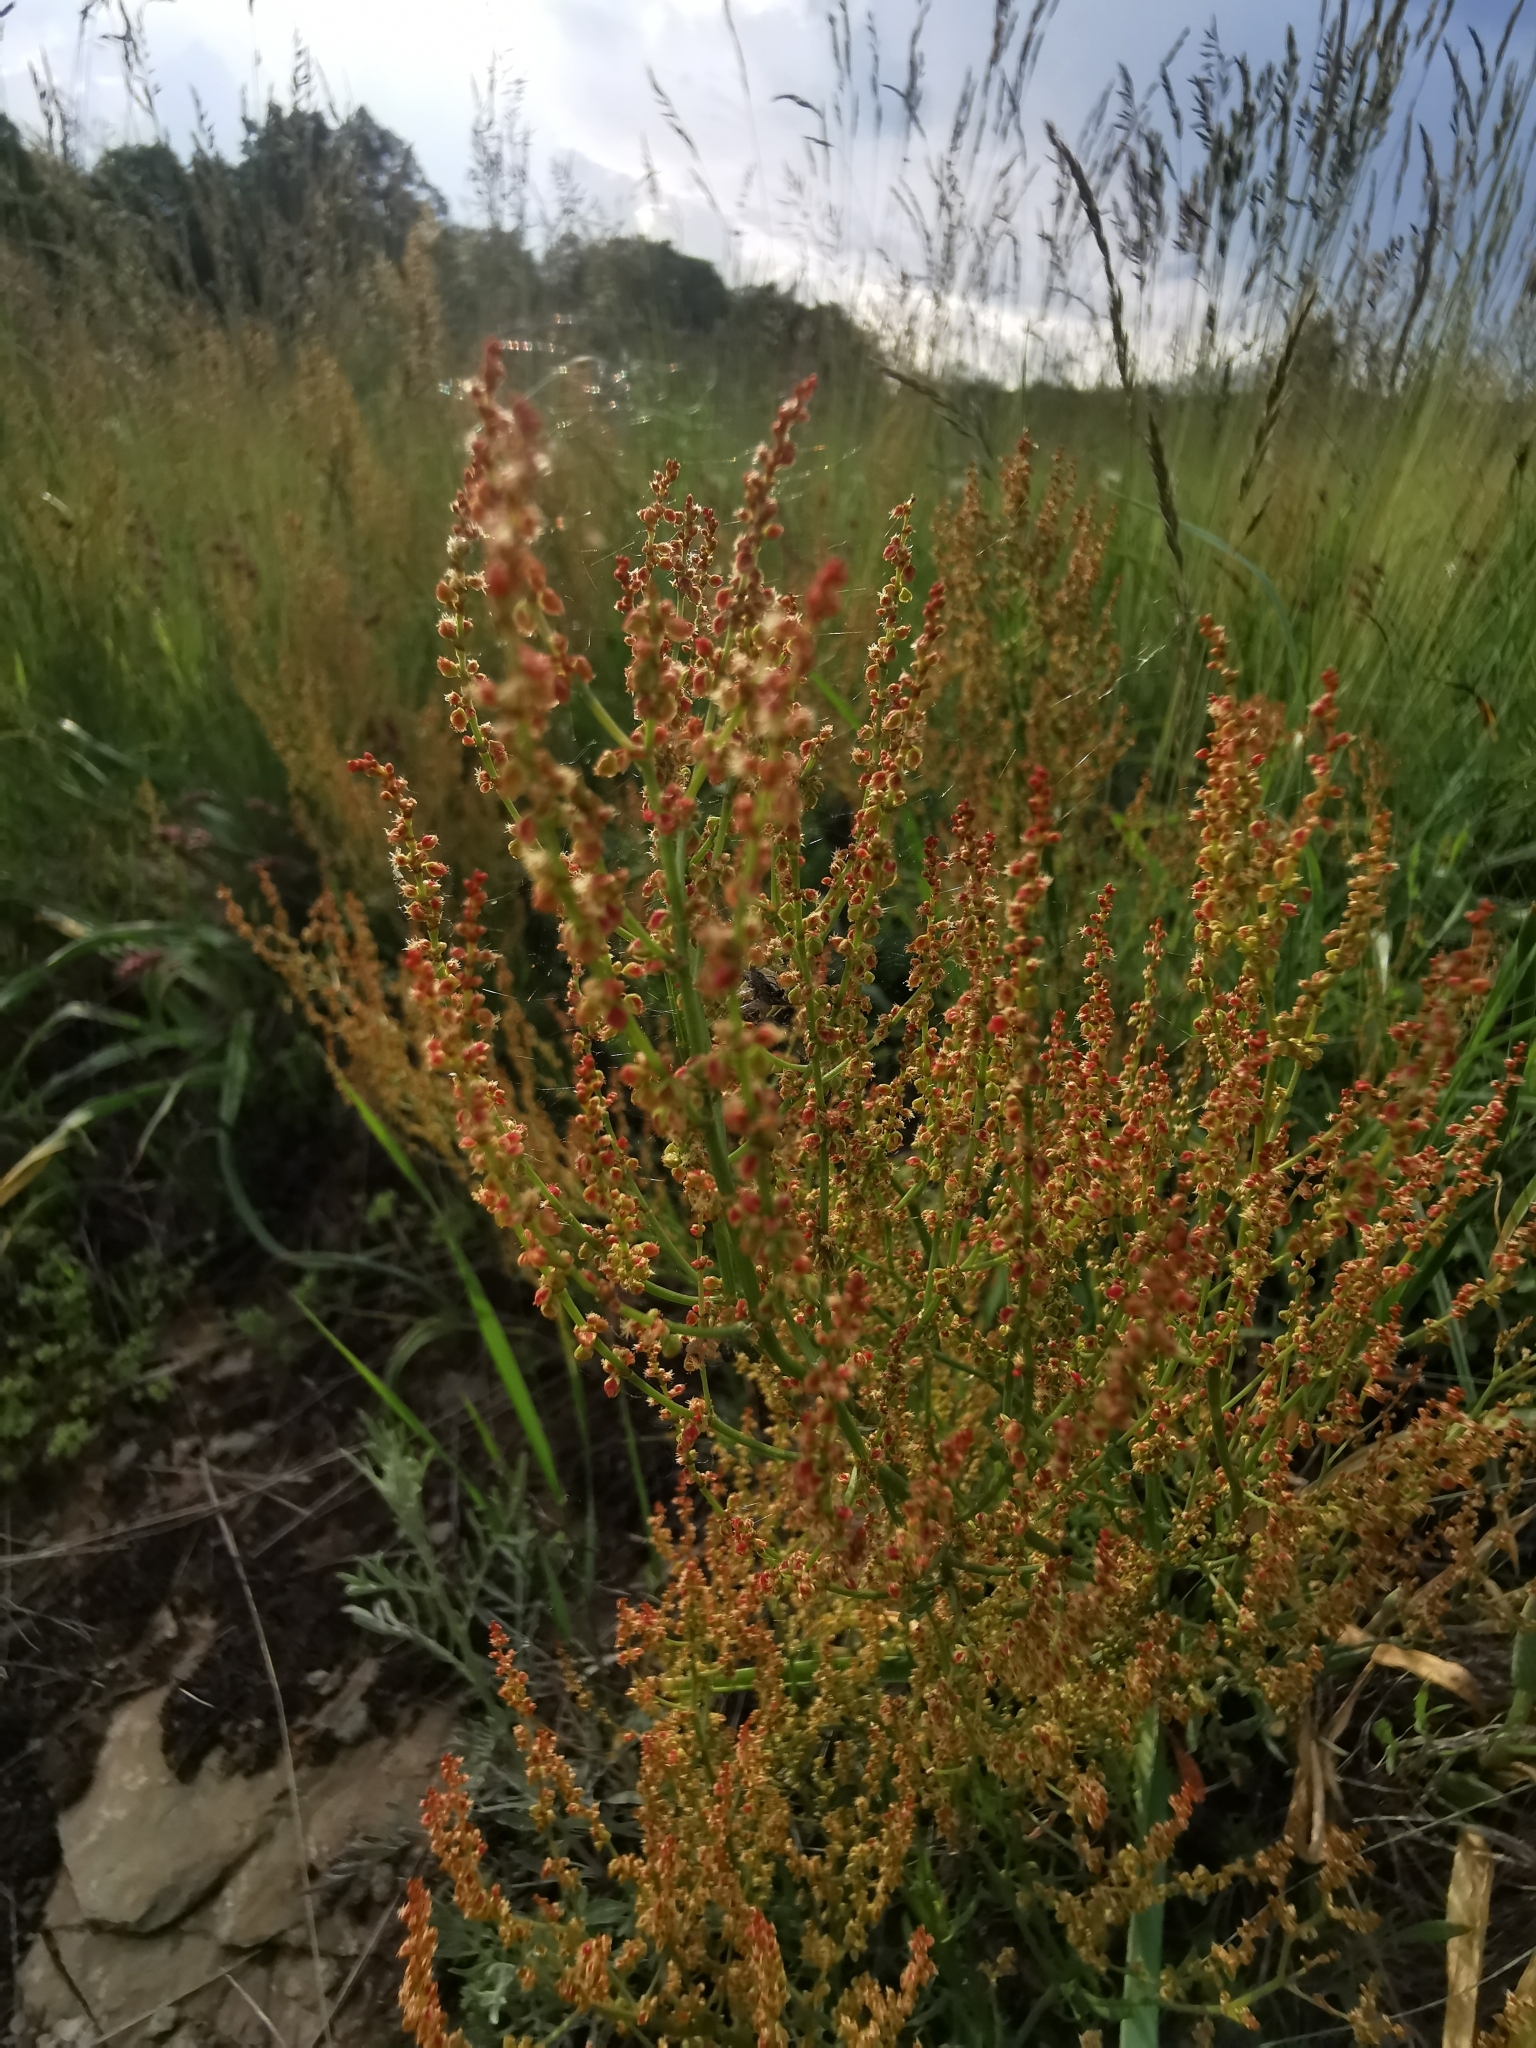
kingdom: Plantae
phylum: Tracheophyta
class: Magnoliopsida
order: Caryophyllales
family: Polygonaceae
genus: Rumex
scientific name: Rumex acetosella
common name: Common sheep sorrel
